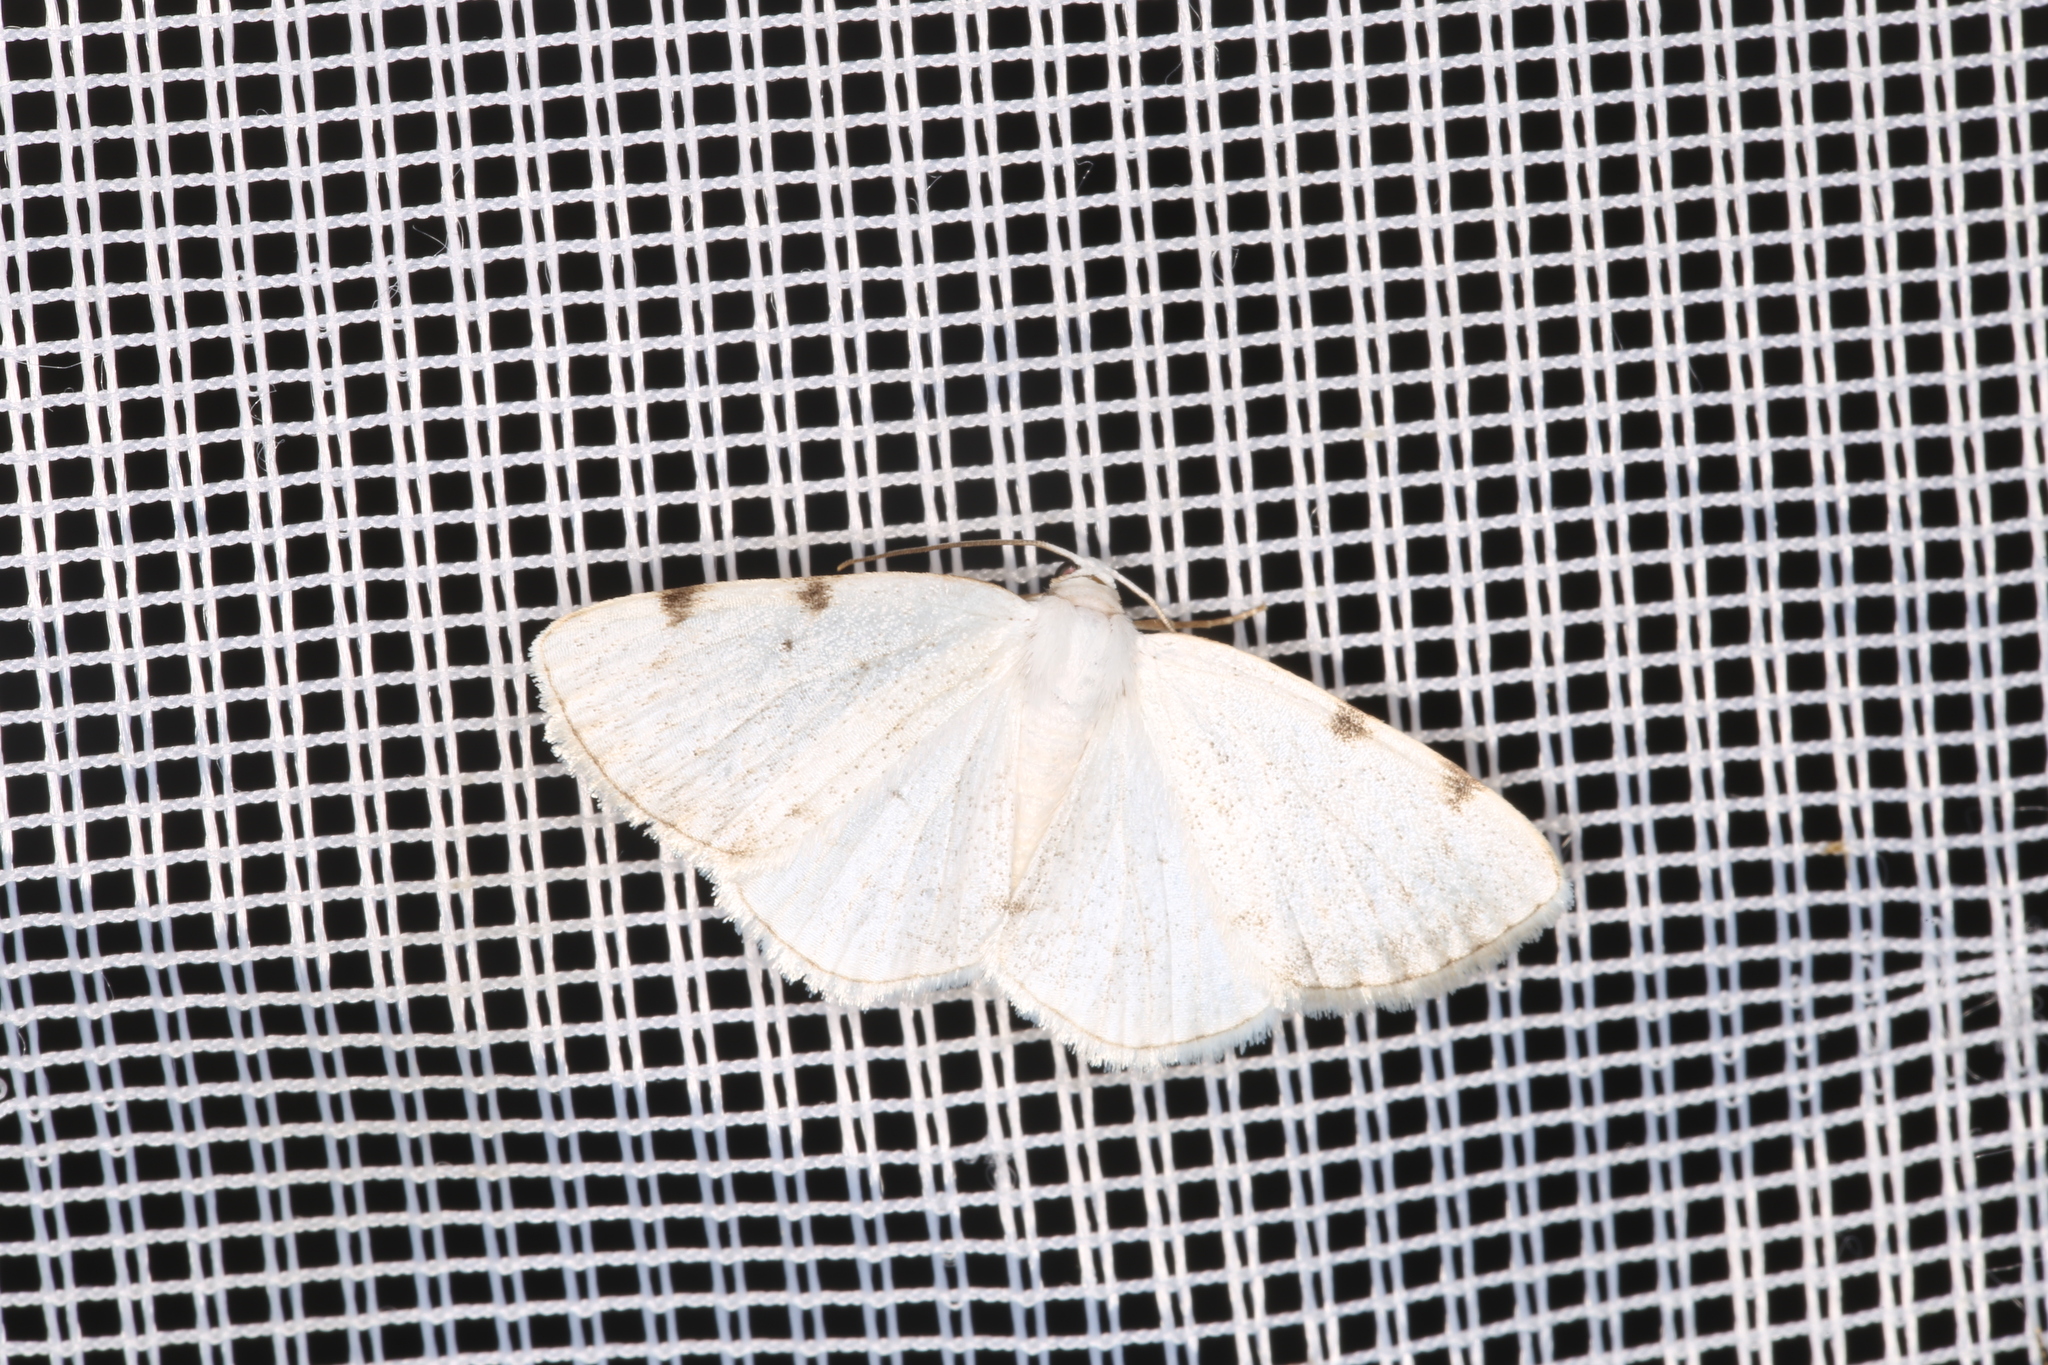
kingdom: Animalia
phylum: Arthropoda
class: Insecta
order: Lepidoptera
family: Geometridae
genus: Lomographa
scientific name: Lomographa bimaculata
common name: White-pinion spotted
